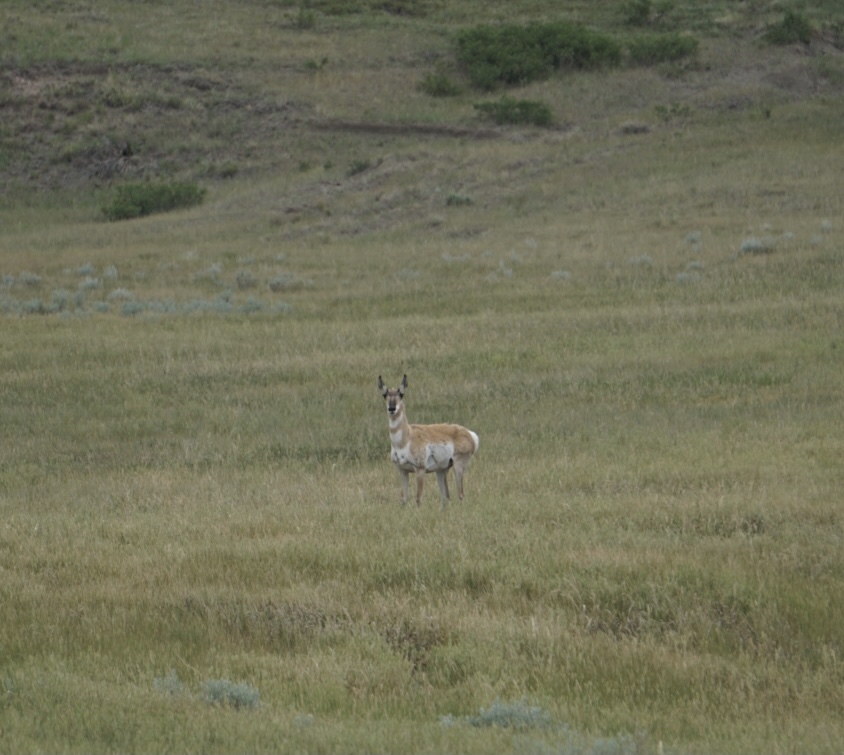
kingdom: Animalia
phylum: Chordata
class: Mammalia
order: Artiodactyla
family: Antilocapridae
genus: Antilocapra
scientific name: Antilocapra americana
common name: Pronghorn
